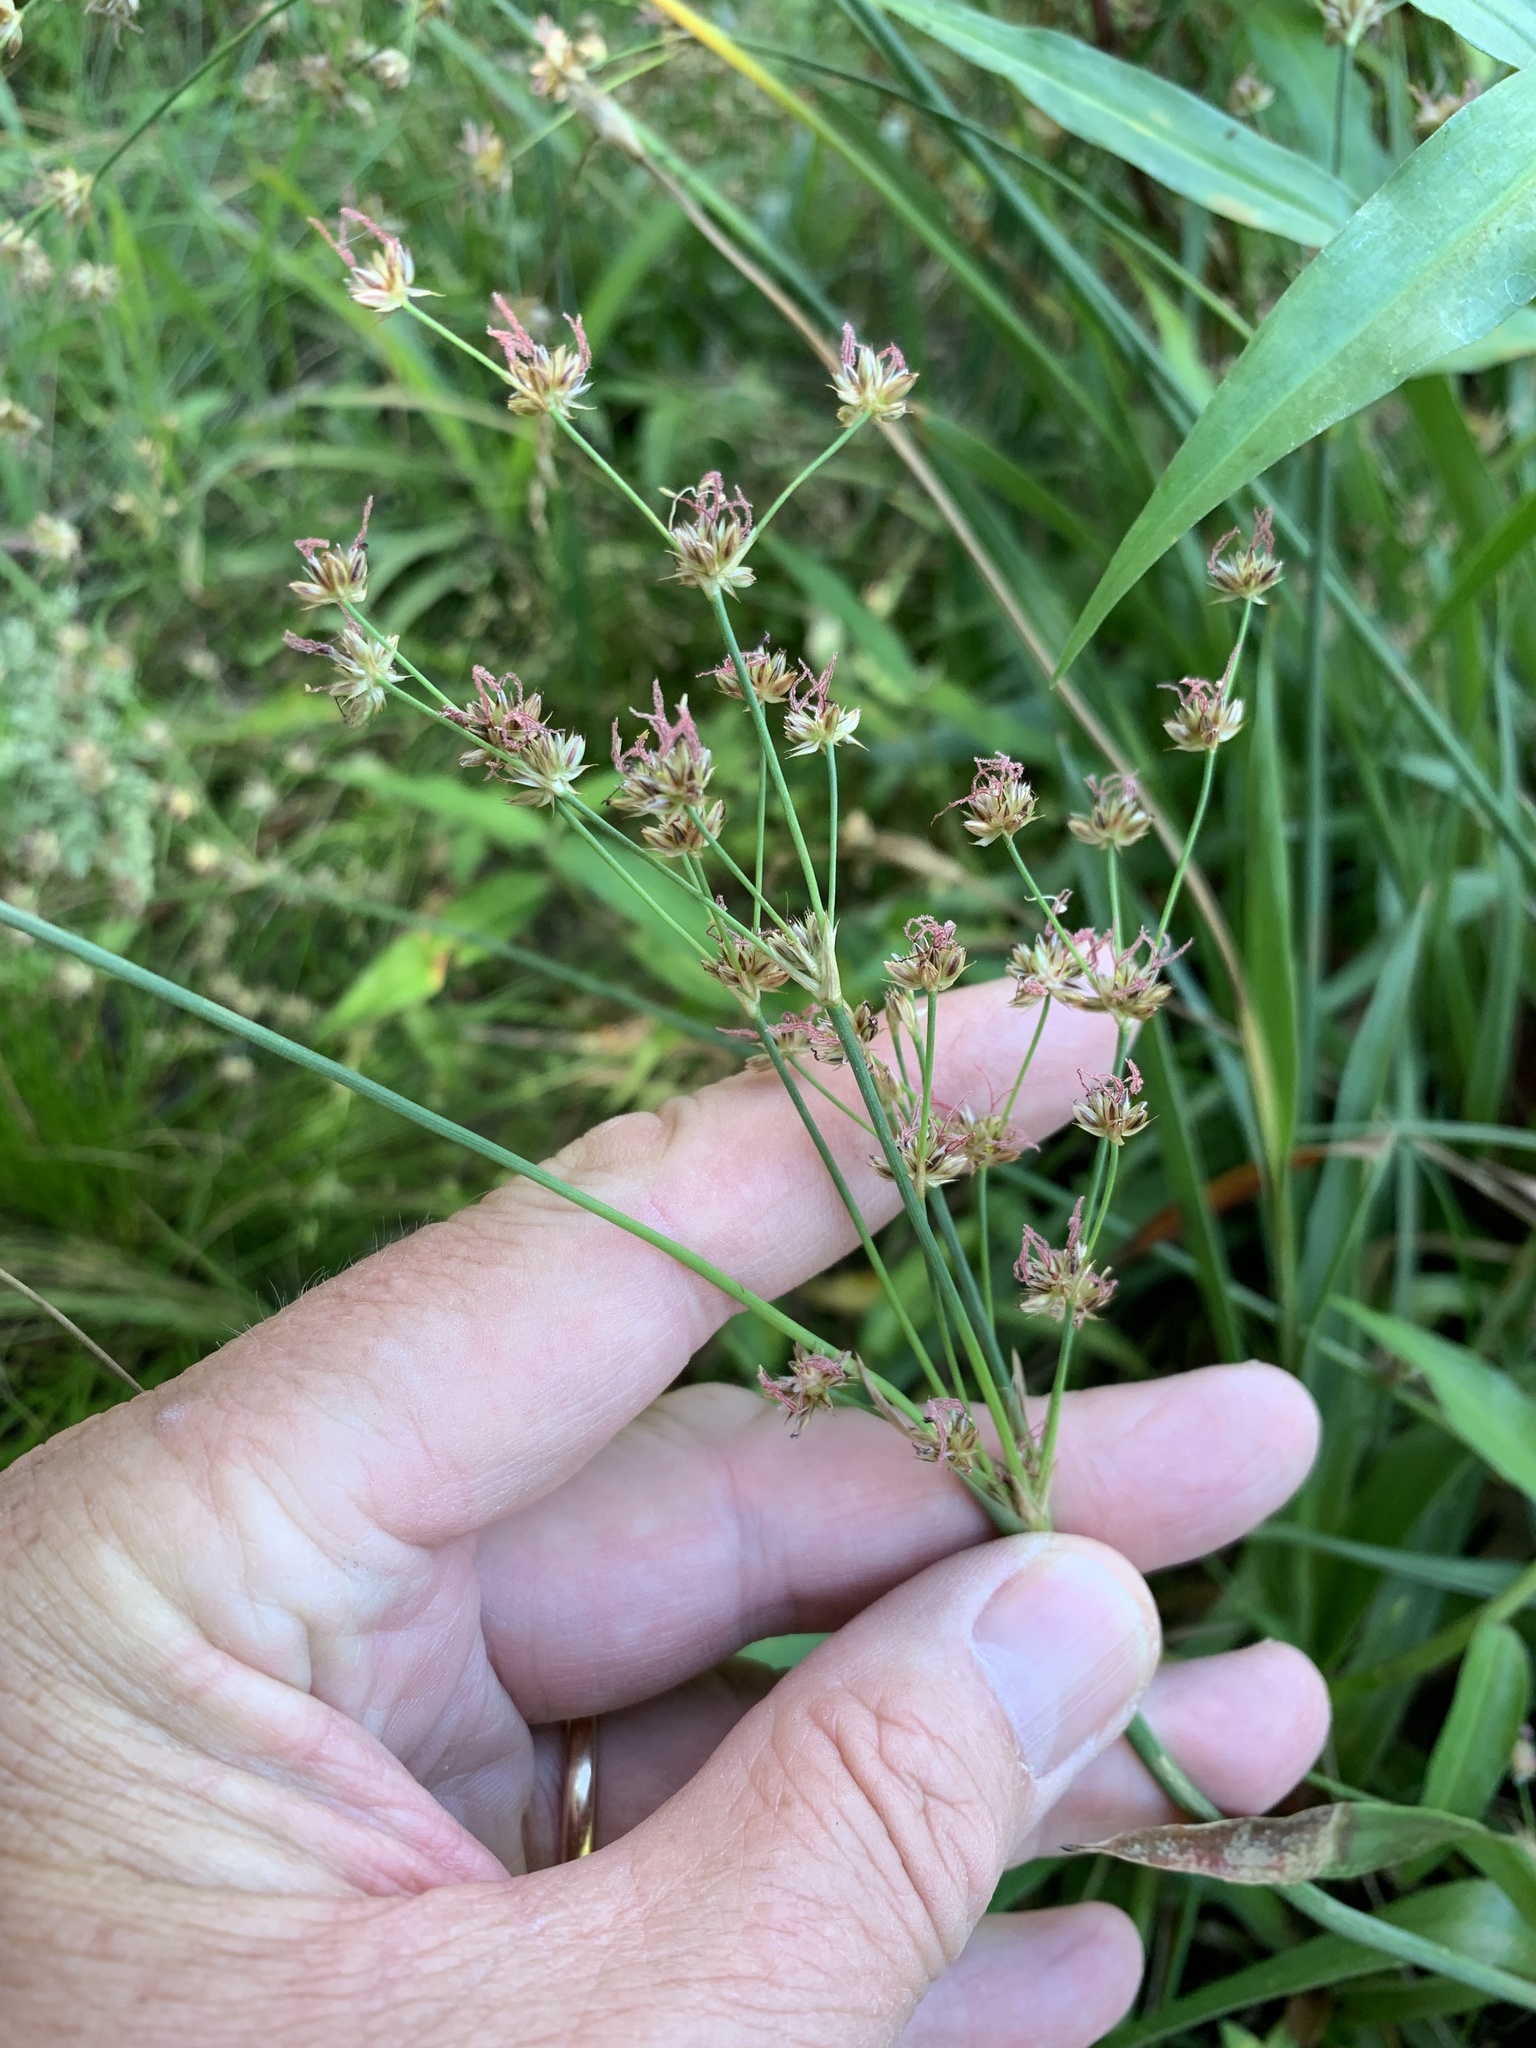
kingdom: Plantae
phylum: Tracheophyta
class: Liliopsida
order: Poales
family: Juncaceae
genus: Juncus
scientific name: Juncus lomatophyllus
